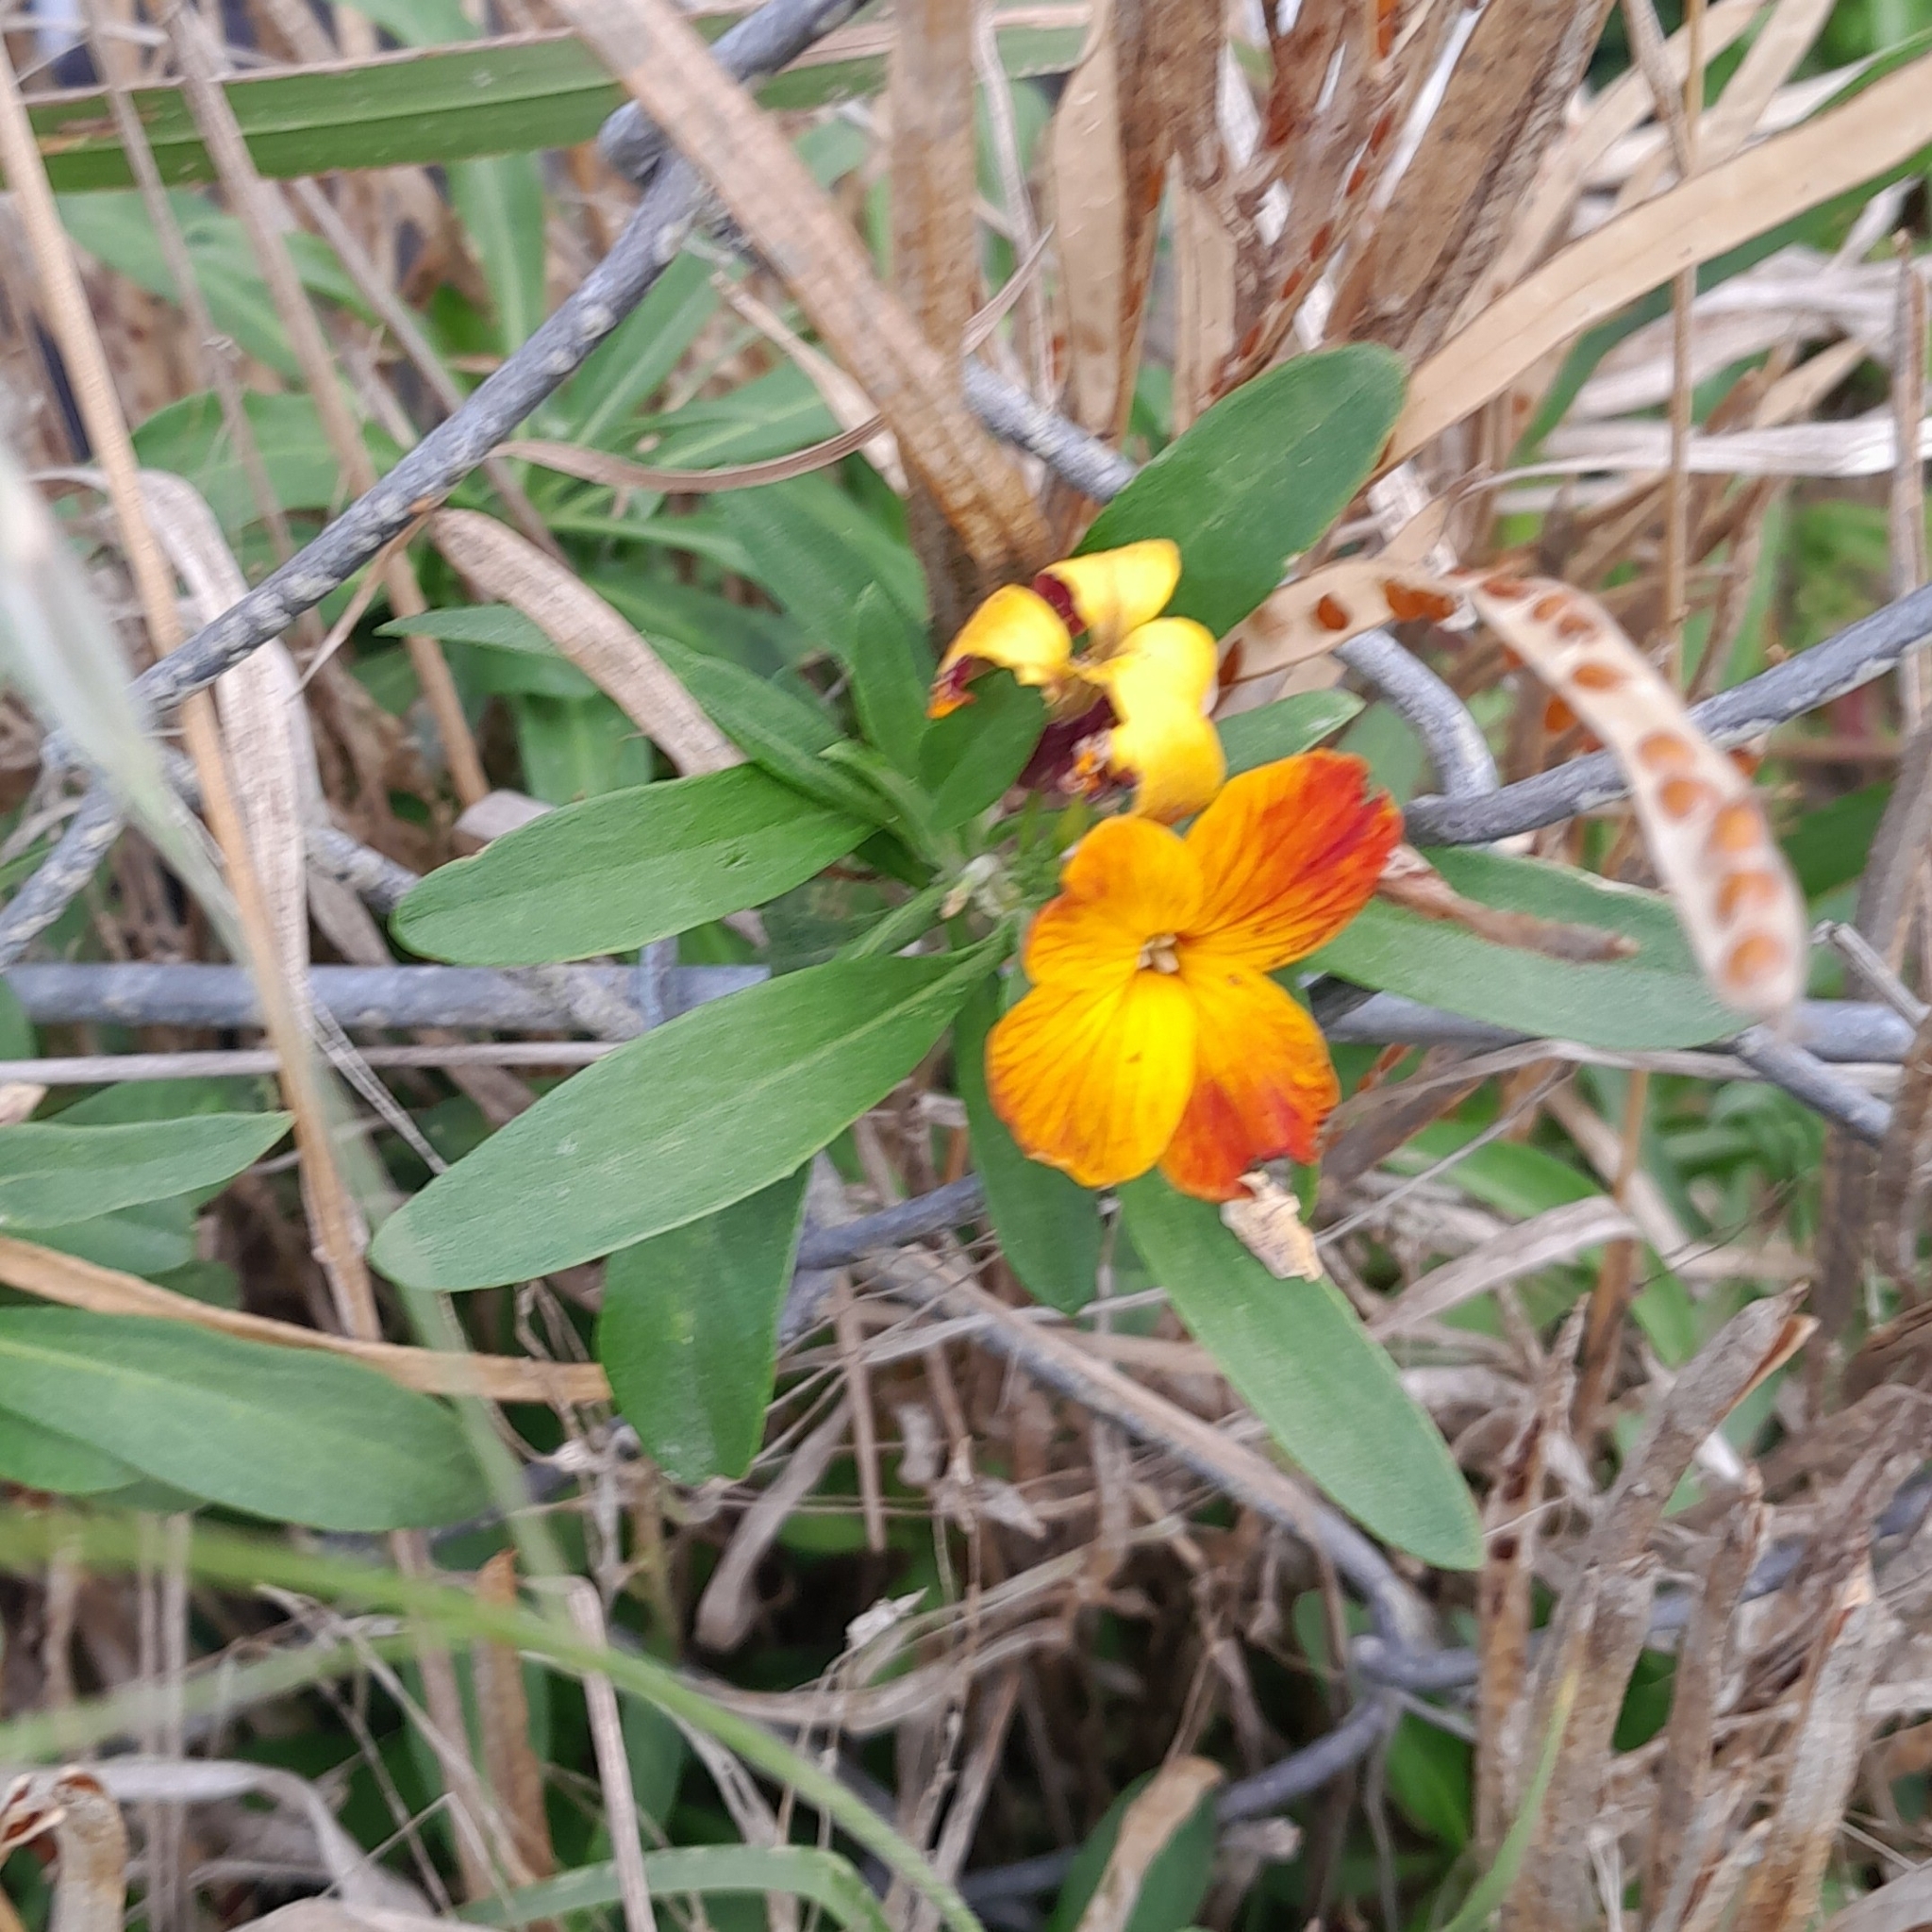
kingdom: Plantae
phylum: Tracheophyta
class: Magnoliopsida
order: Brassicales
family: Brassicaceae
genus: Erysimum
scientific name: Erysimum cheiri
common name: Wallflower
